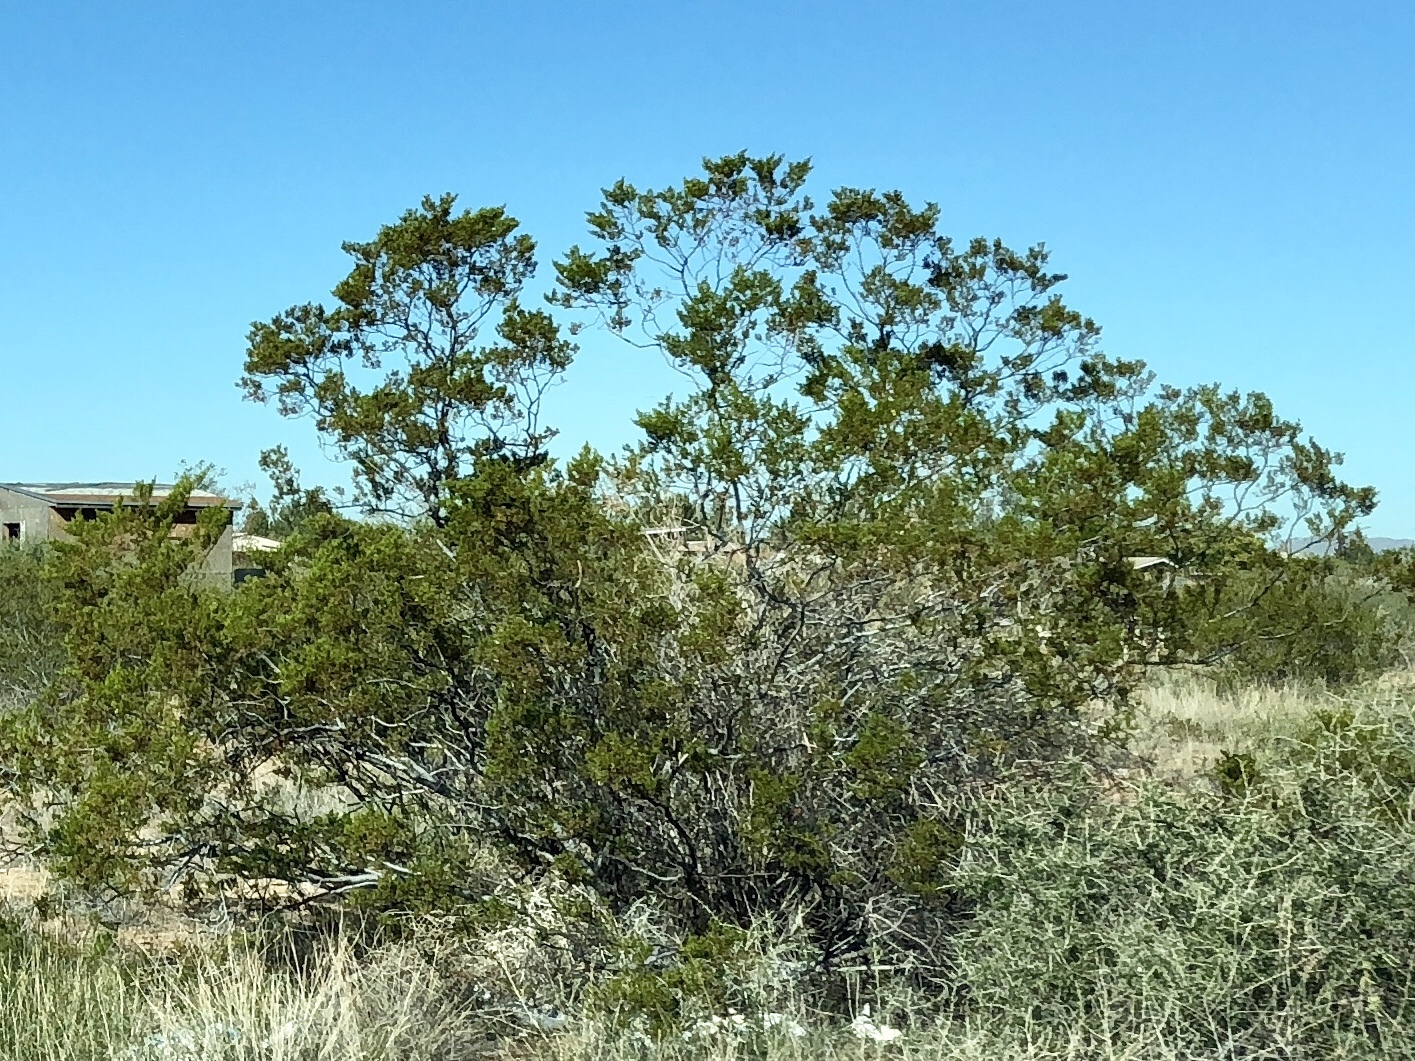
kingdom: Plantae
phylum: Tracheophyta
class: Magnoliopsida
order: Zygophyllales
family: Zygophyllaceae
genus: Larrea
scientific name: Larrea tridentata
